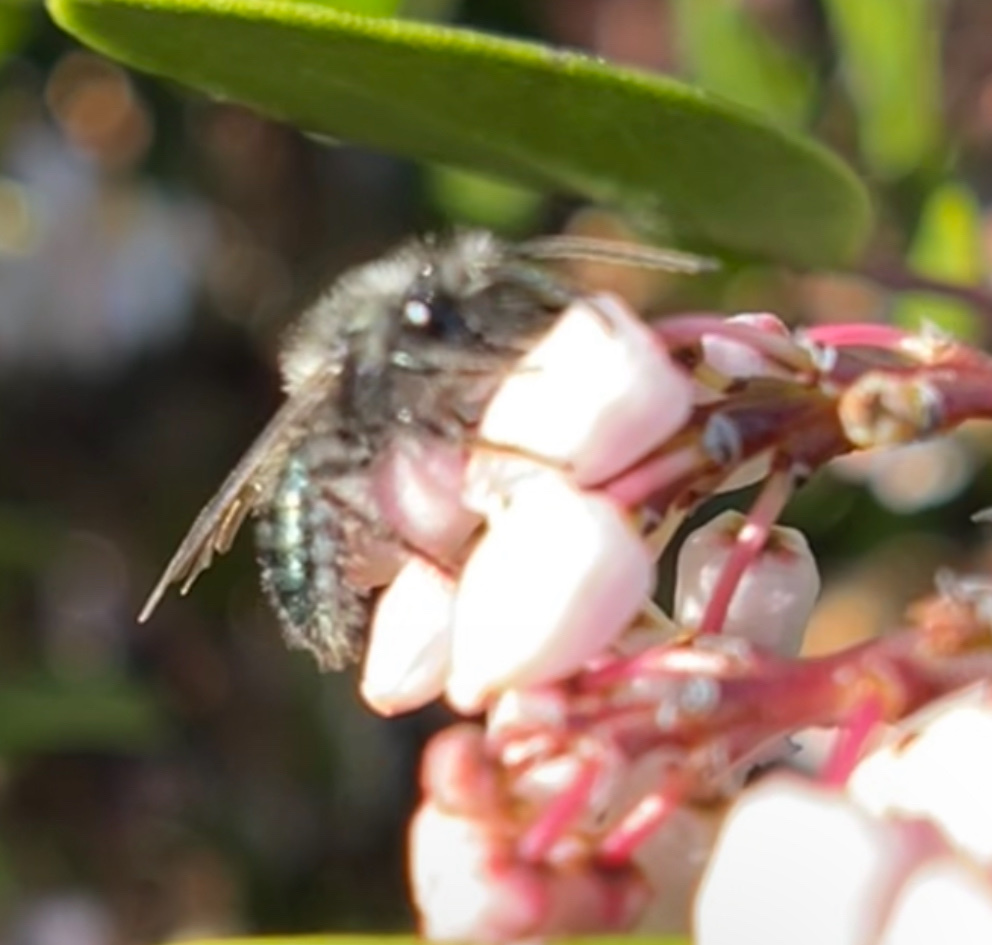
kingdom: Animalia
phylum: Arthropoda
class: Insecta
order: Hymenoptera
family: Andrenidae
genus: Andrena
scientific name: Andrena cerasifolii
